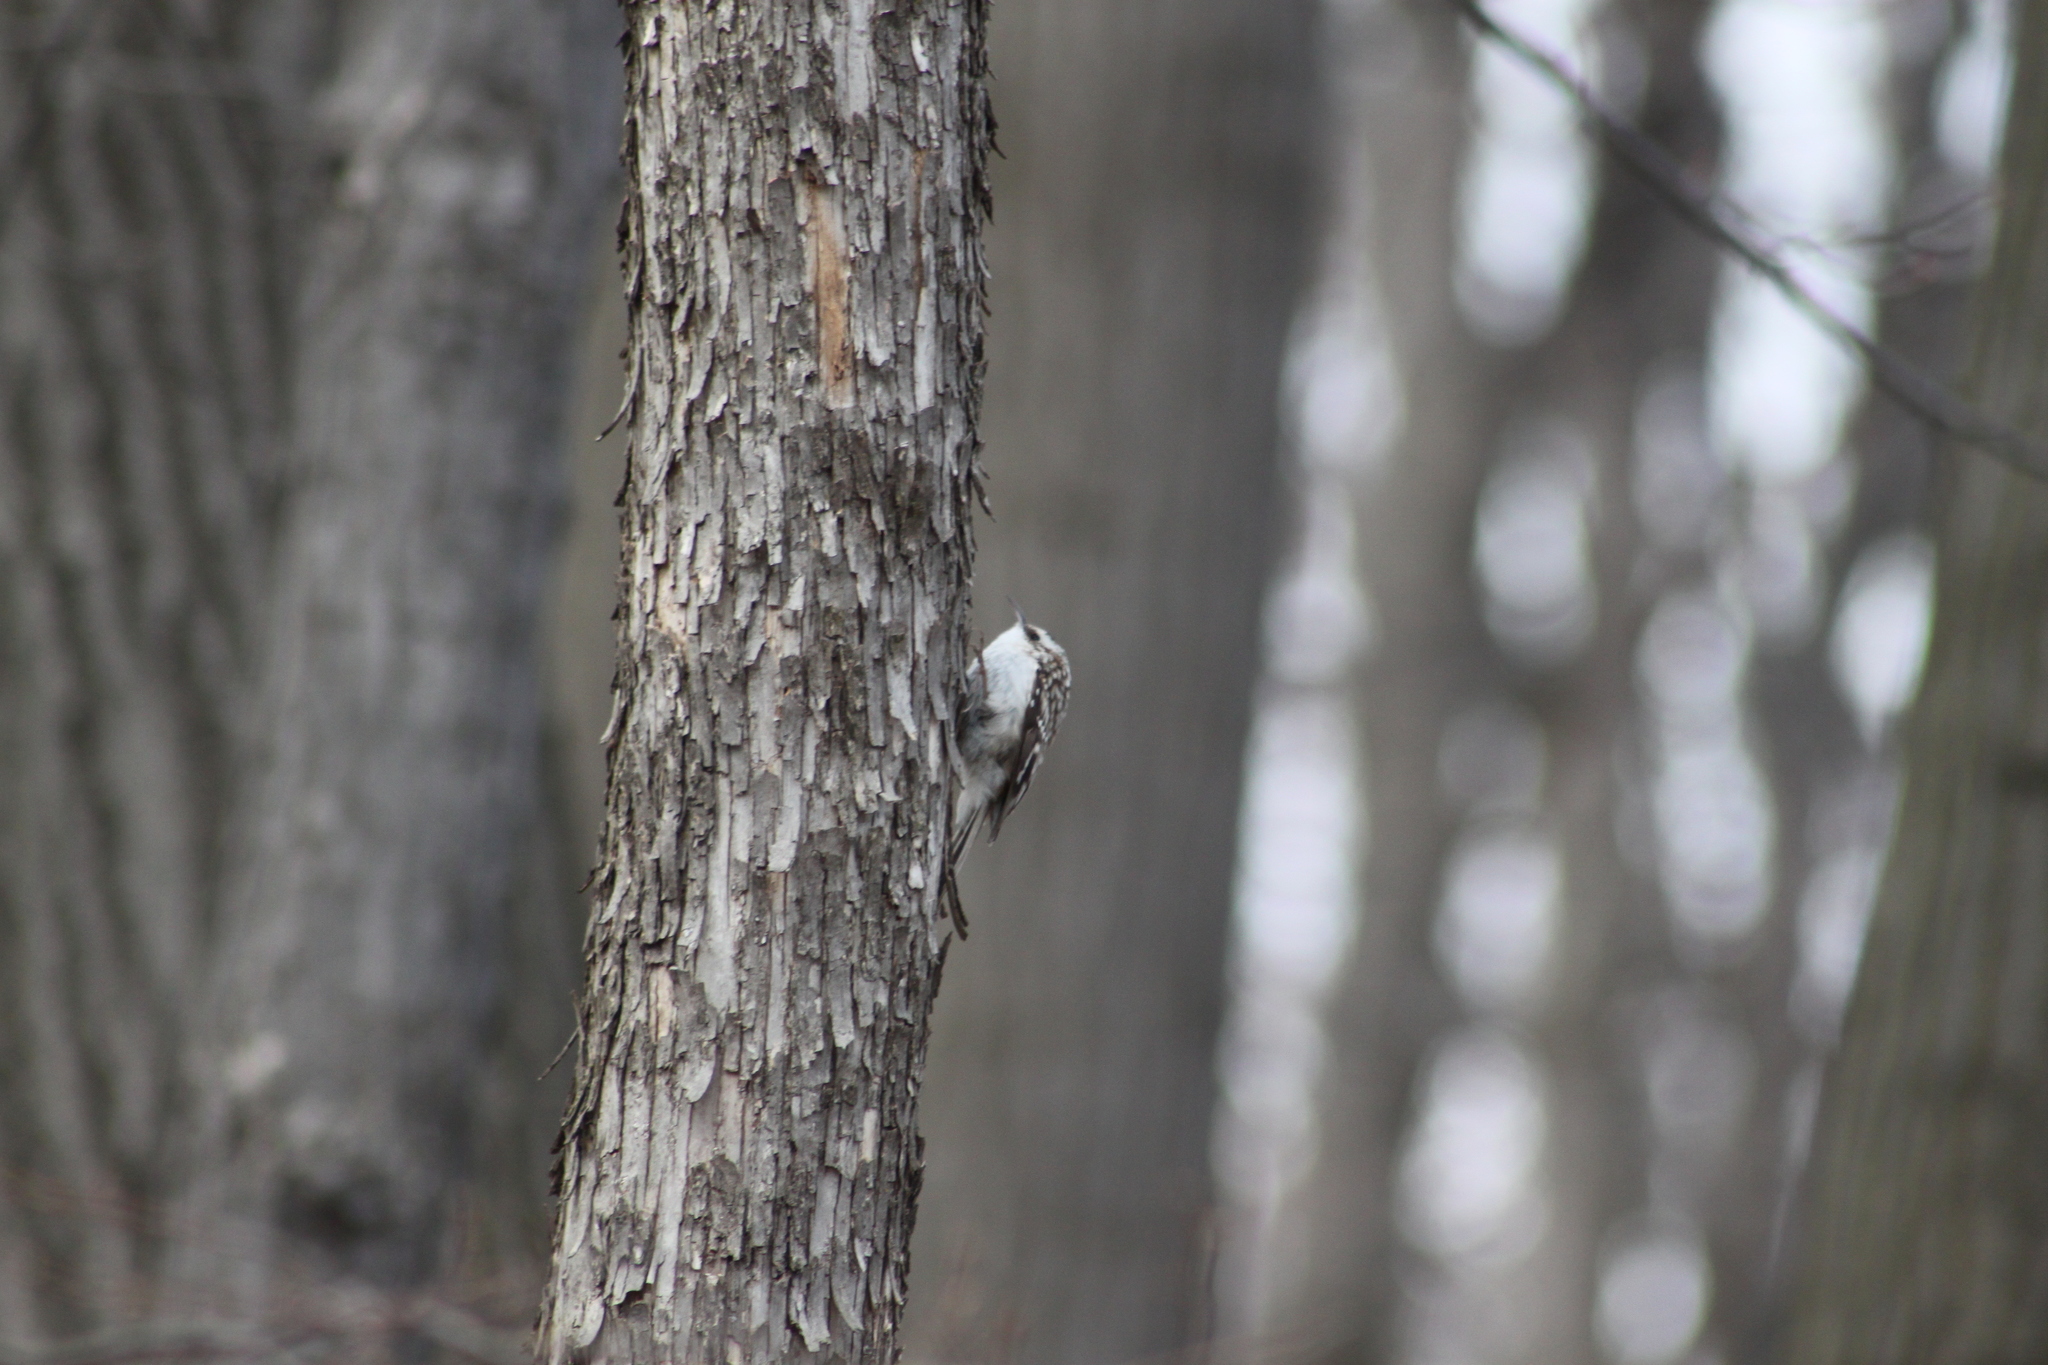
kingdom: Animalia
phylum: Chordata
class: Aves
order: Passeriformes
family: Certhiidae
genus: Certhia
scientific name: Certhia americana
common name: Brown creeper
